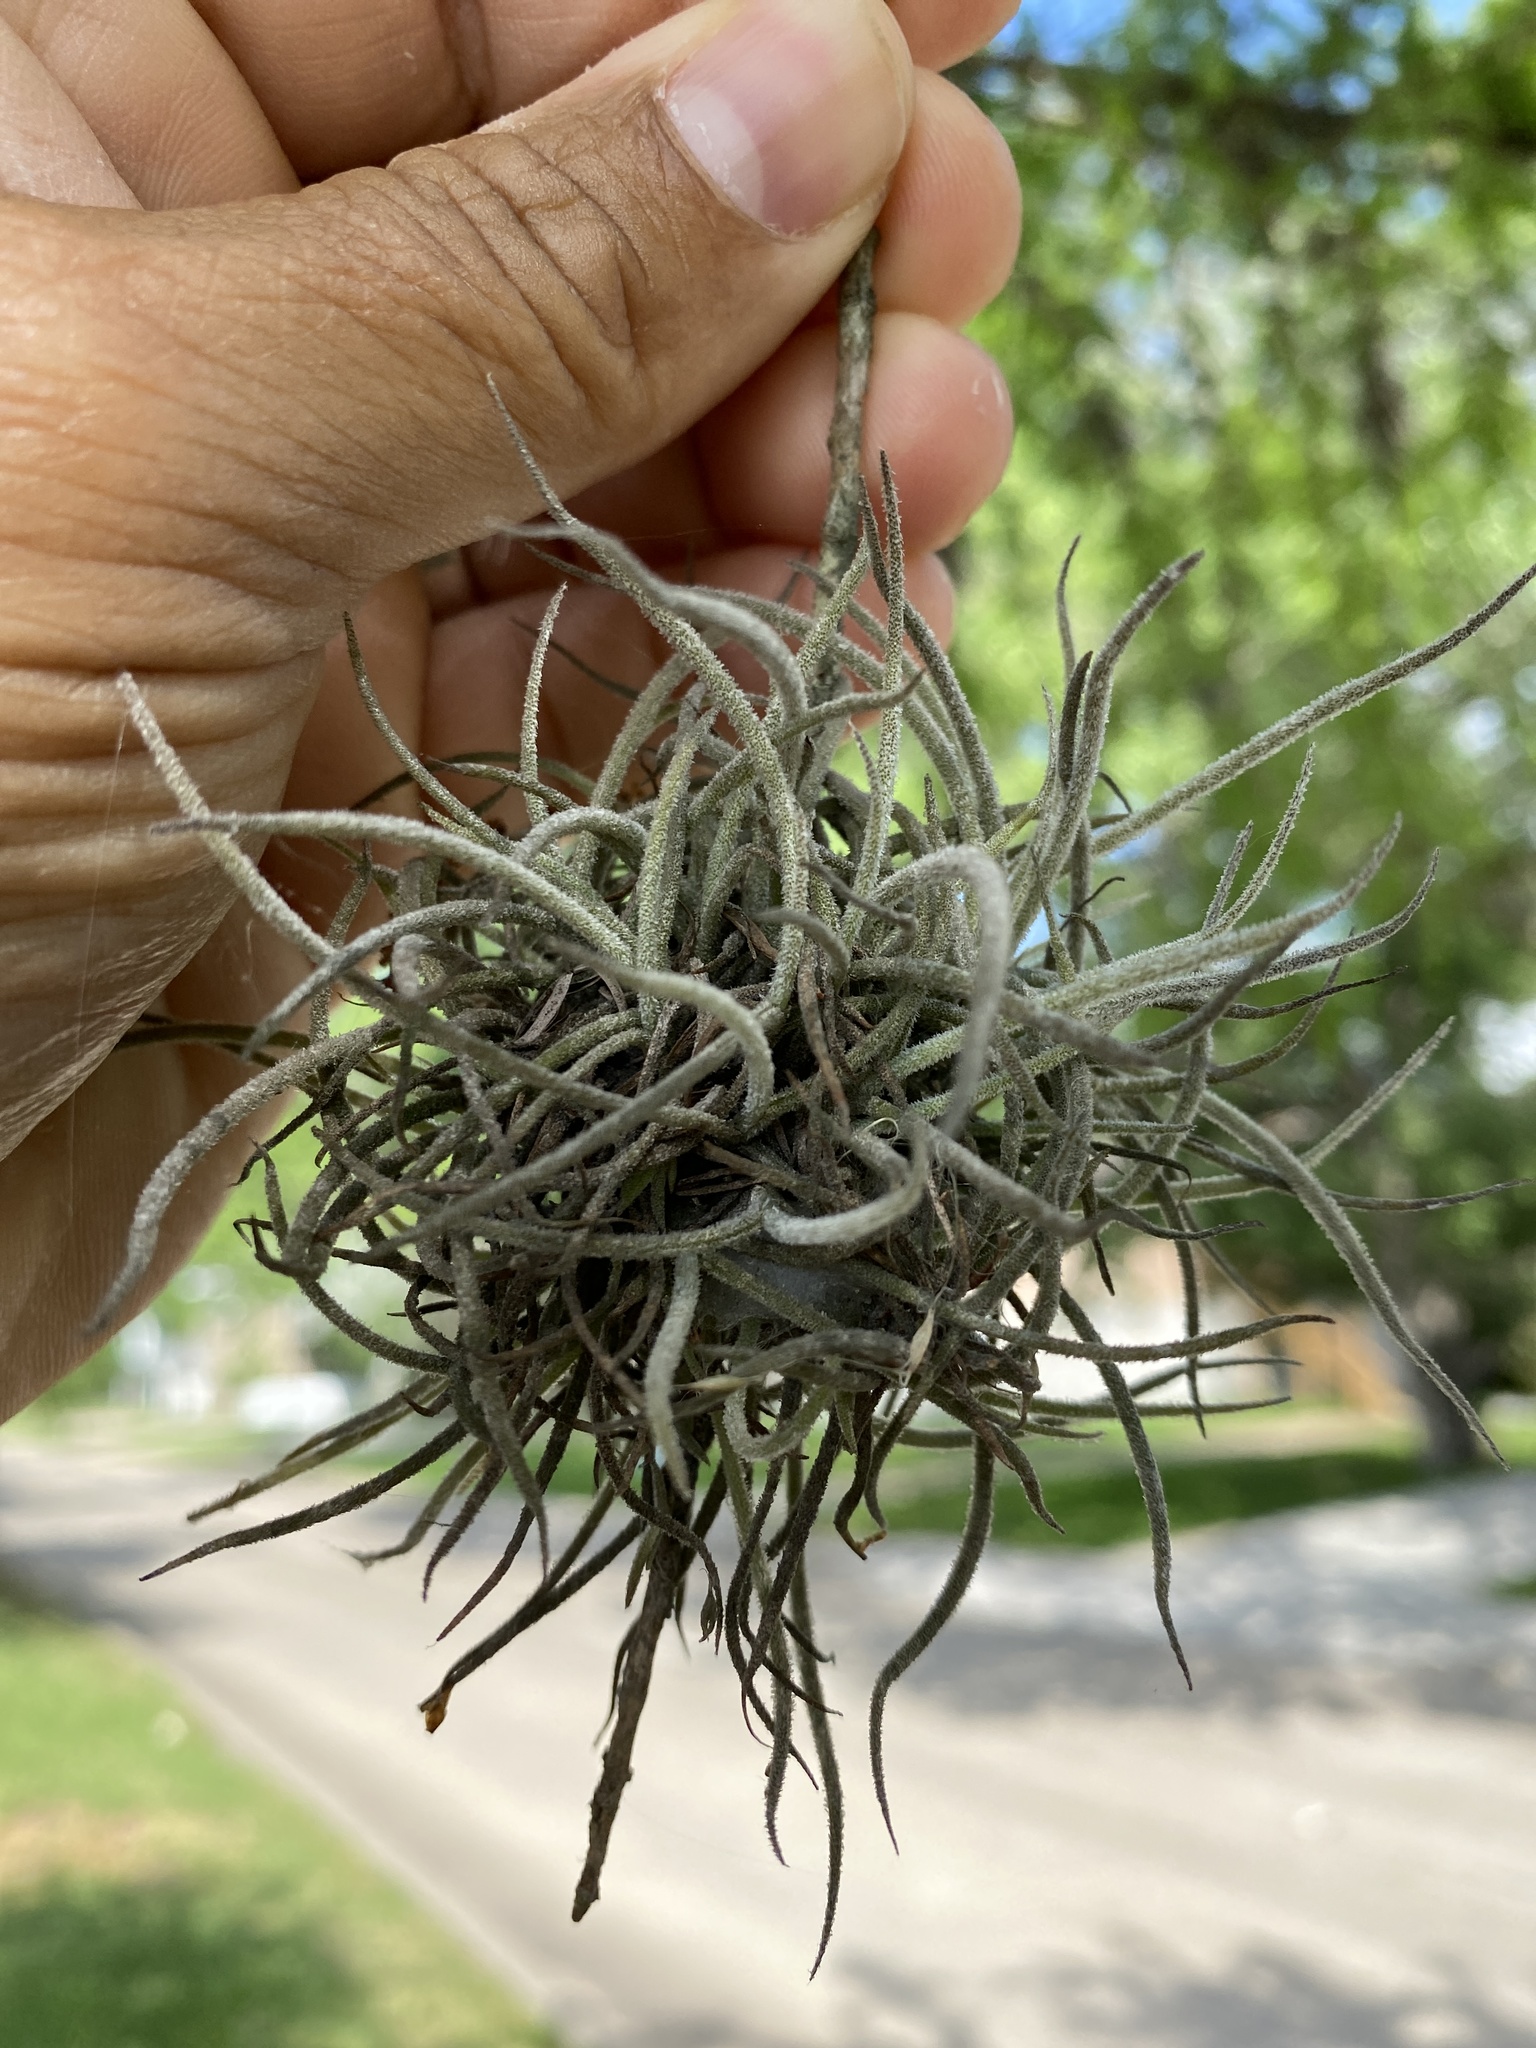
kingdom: Plantae
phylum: Tracheophyta
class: Liliopsida
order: Poales
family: Bromeliaceae
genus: Tillandsia
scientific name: Tillandsia recurvata
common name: Small ballmoss
